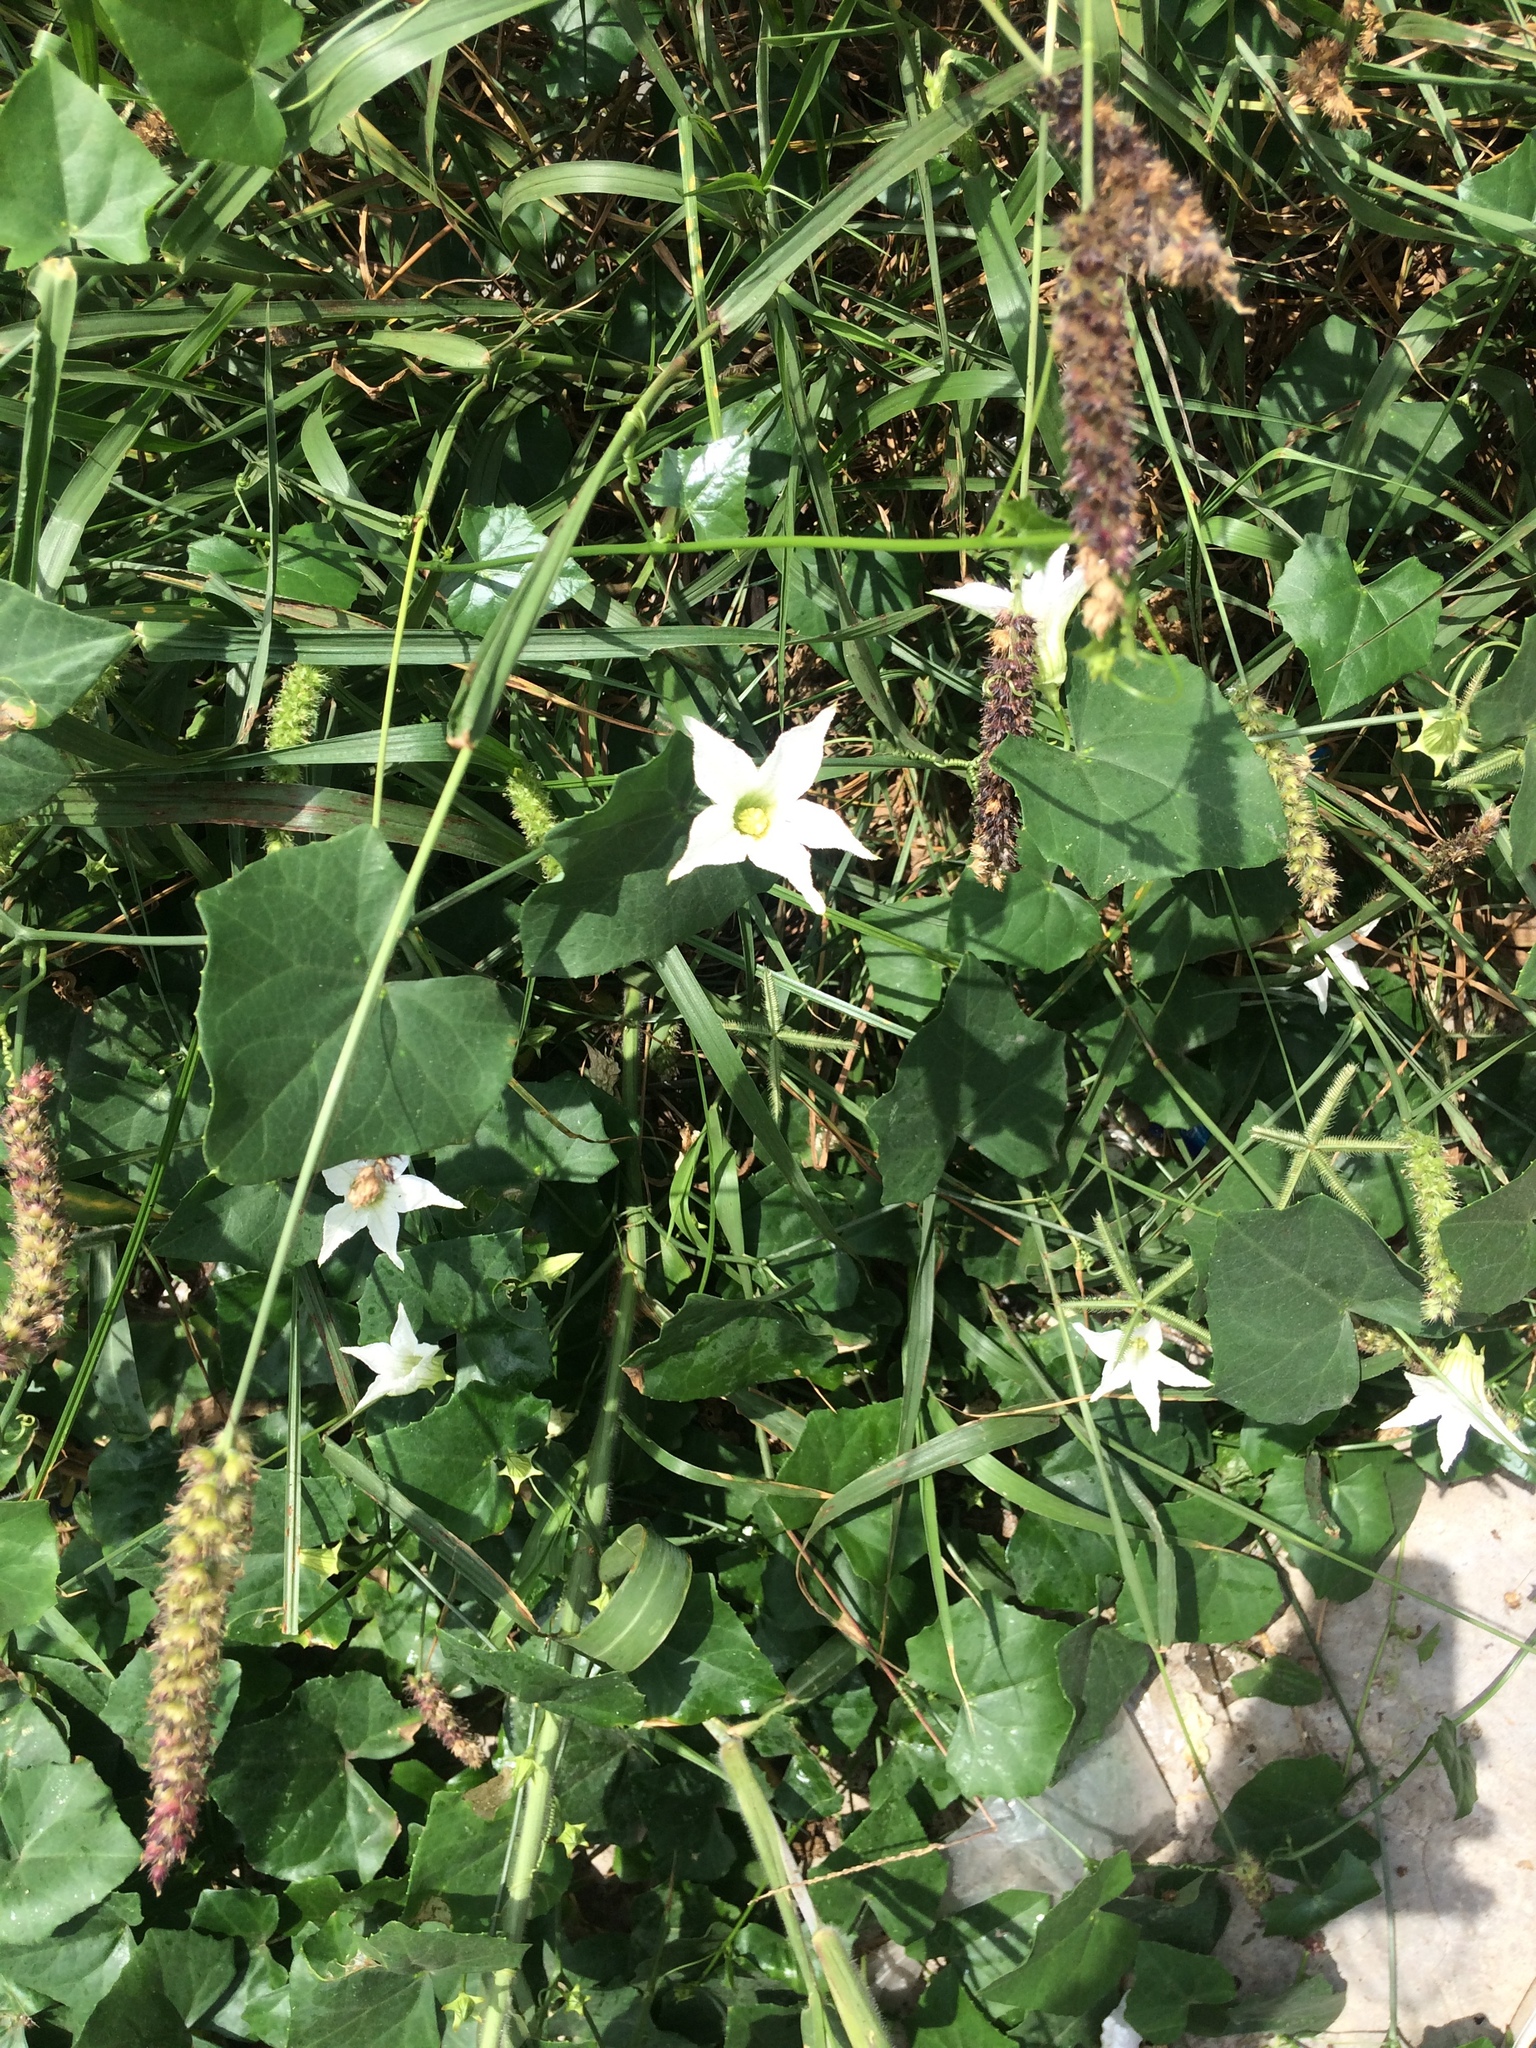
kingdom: Plantae
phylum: Tracheophyta
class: Magnoliopsida
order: Cucurbitales
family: Cucurbitaceae
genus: Coccinia
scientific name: Coccinia grandis
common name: Ivy gourd
